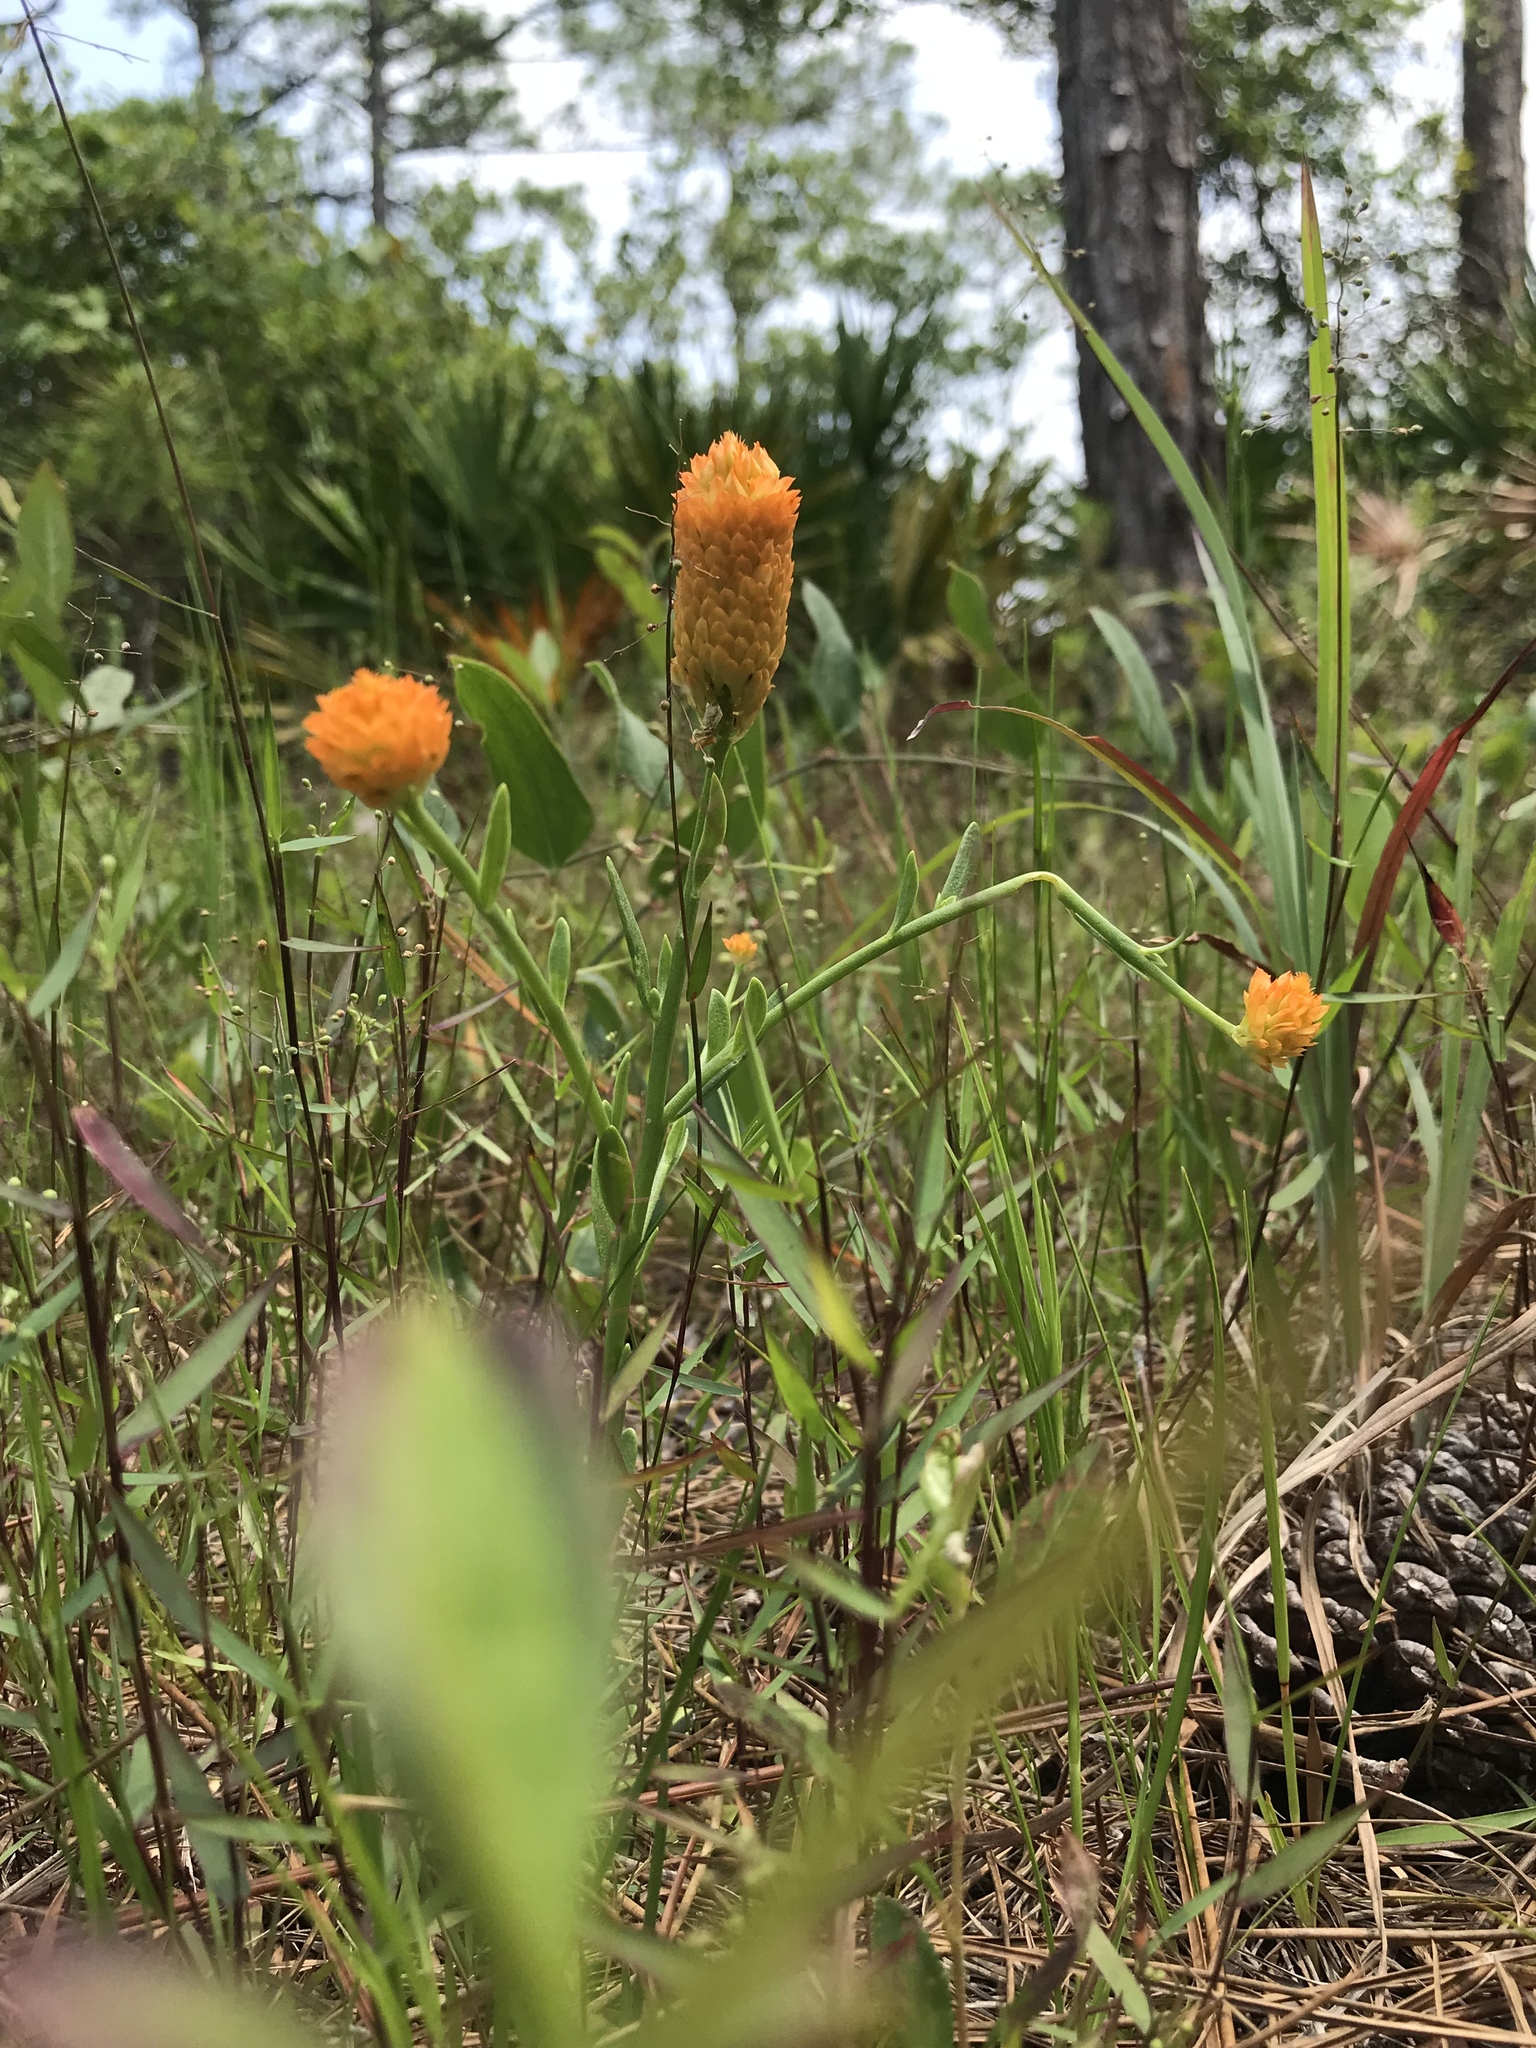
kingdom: Plantae
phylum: Tracheophyta
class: Magnoliopsida
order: Fabales
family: Polygalaceae
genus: Polygala
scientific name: Polygala lutea
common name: Orange milkwort
